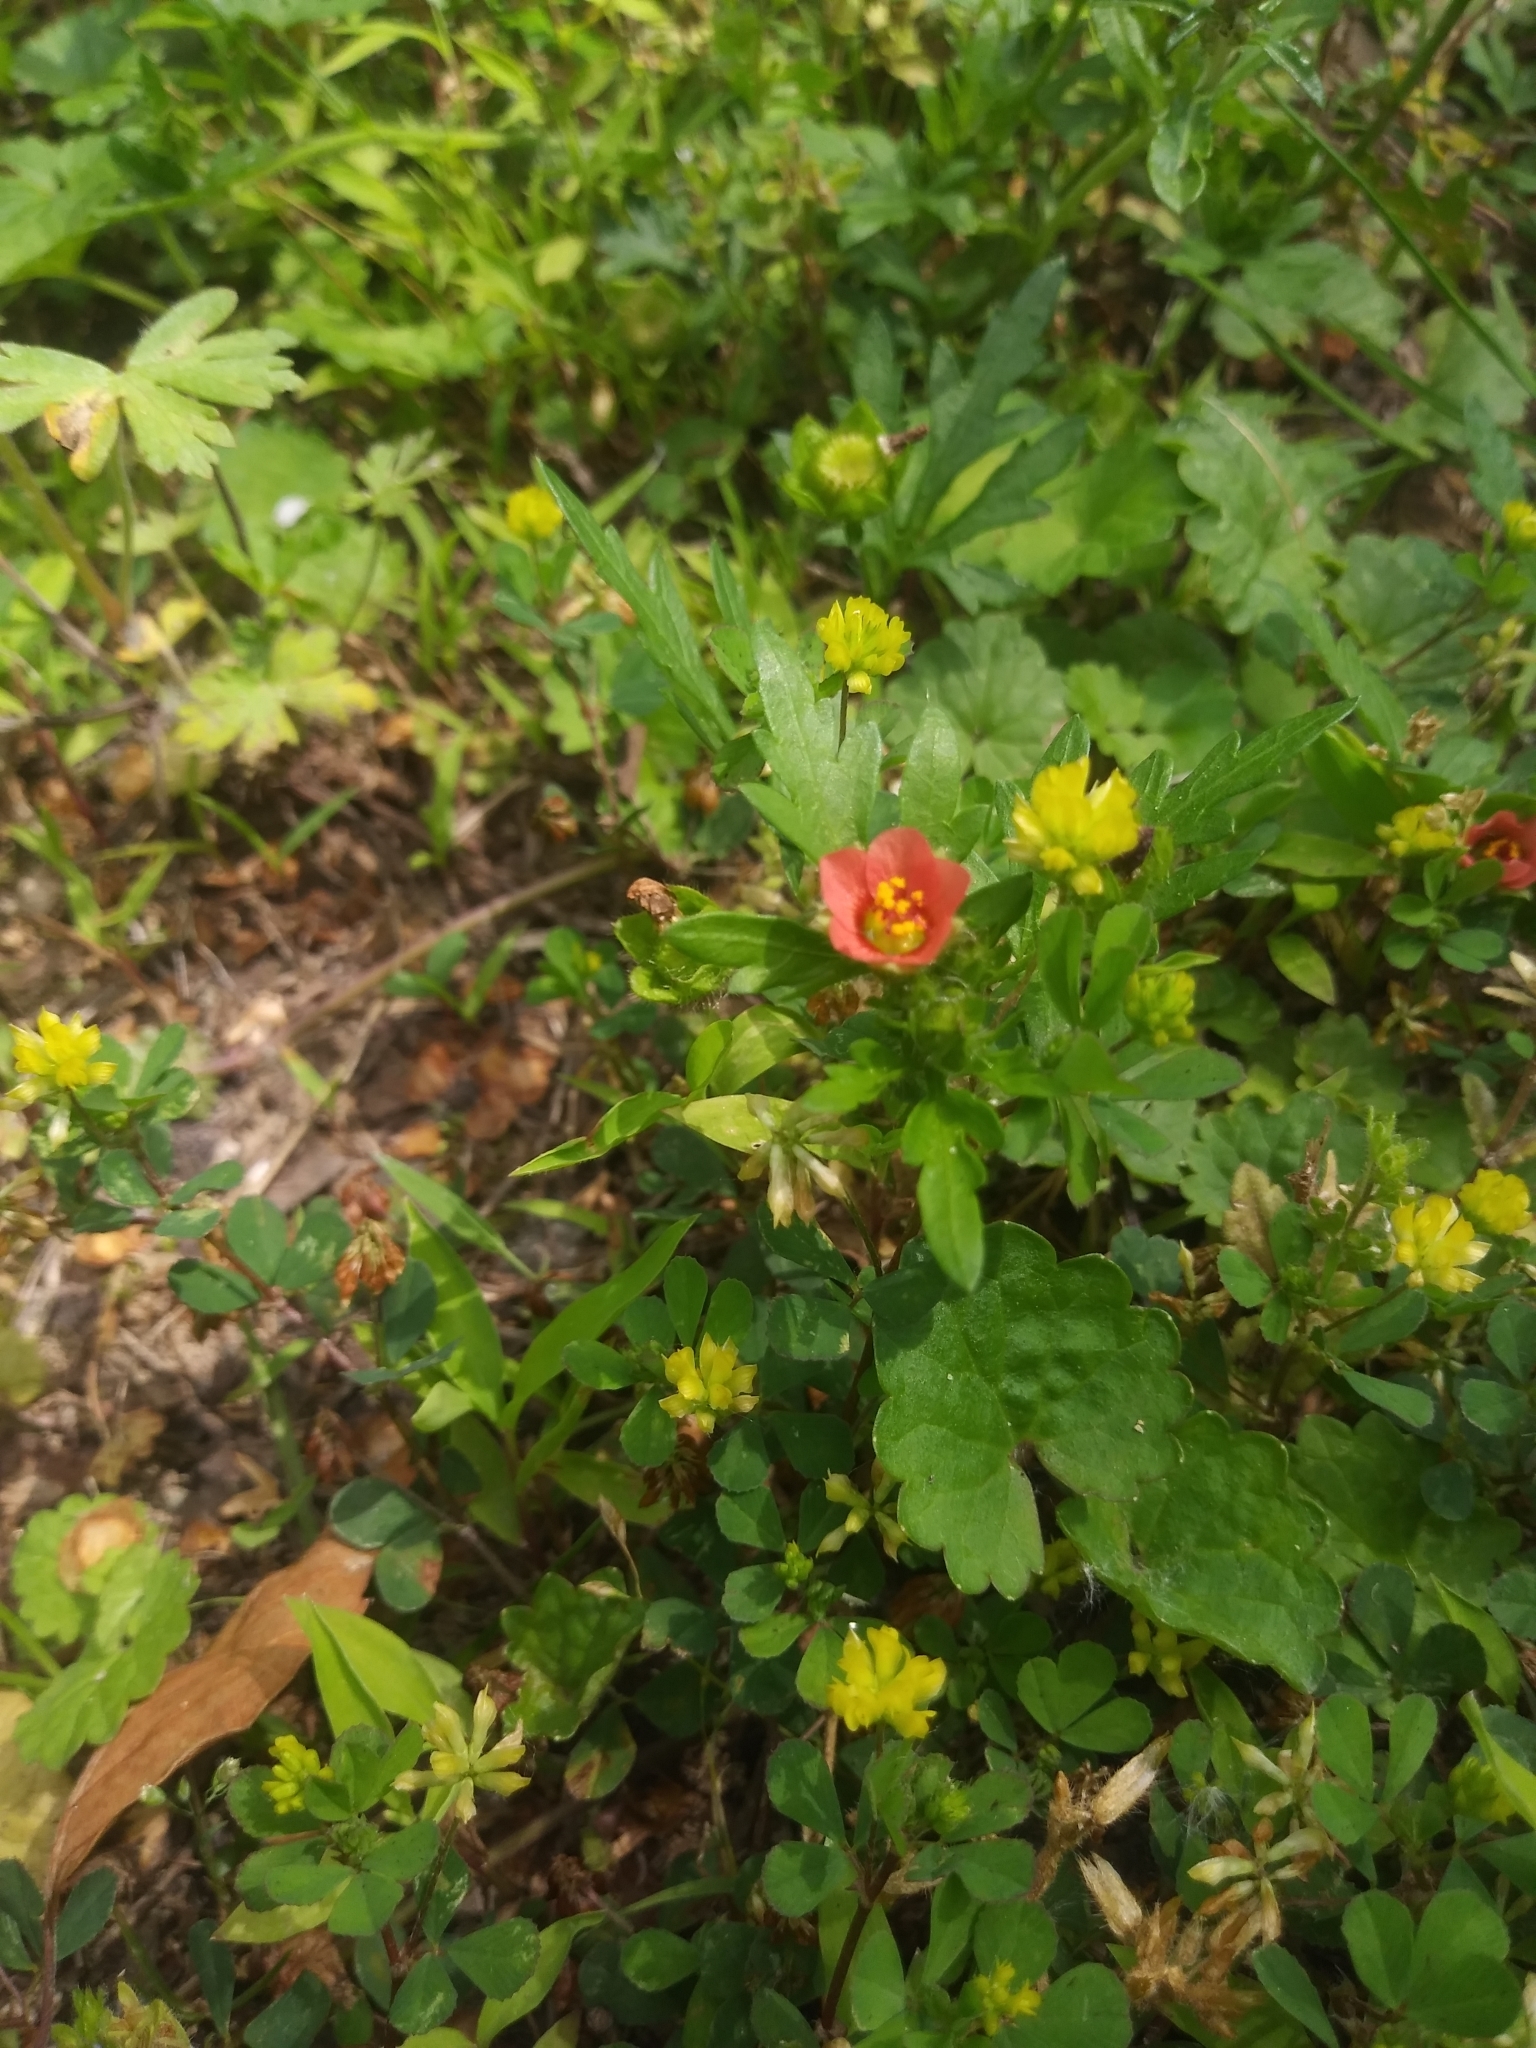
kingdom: Plantae
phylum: Tracheophyta
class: Magnoliopsida
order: Malvales
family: Malvaceae
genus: Modiola
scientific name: Modiola caroliniana
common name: Carolina bristlemallow
